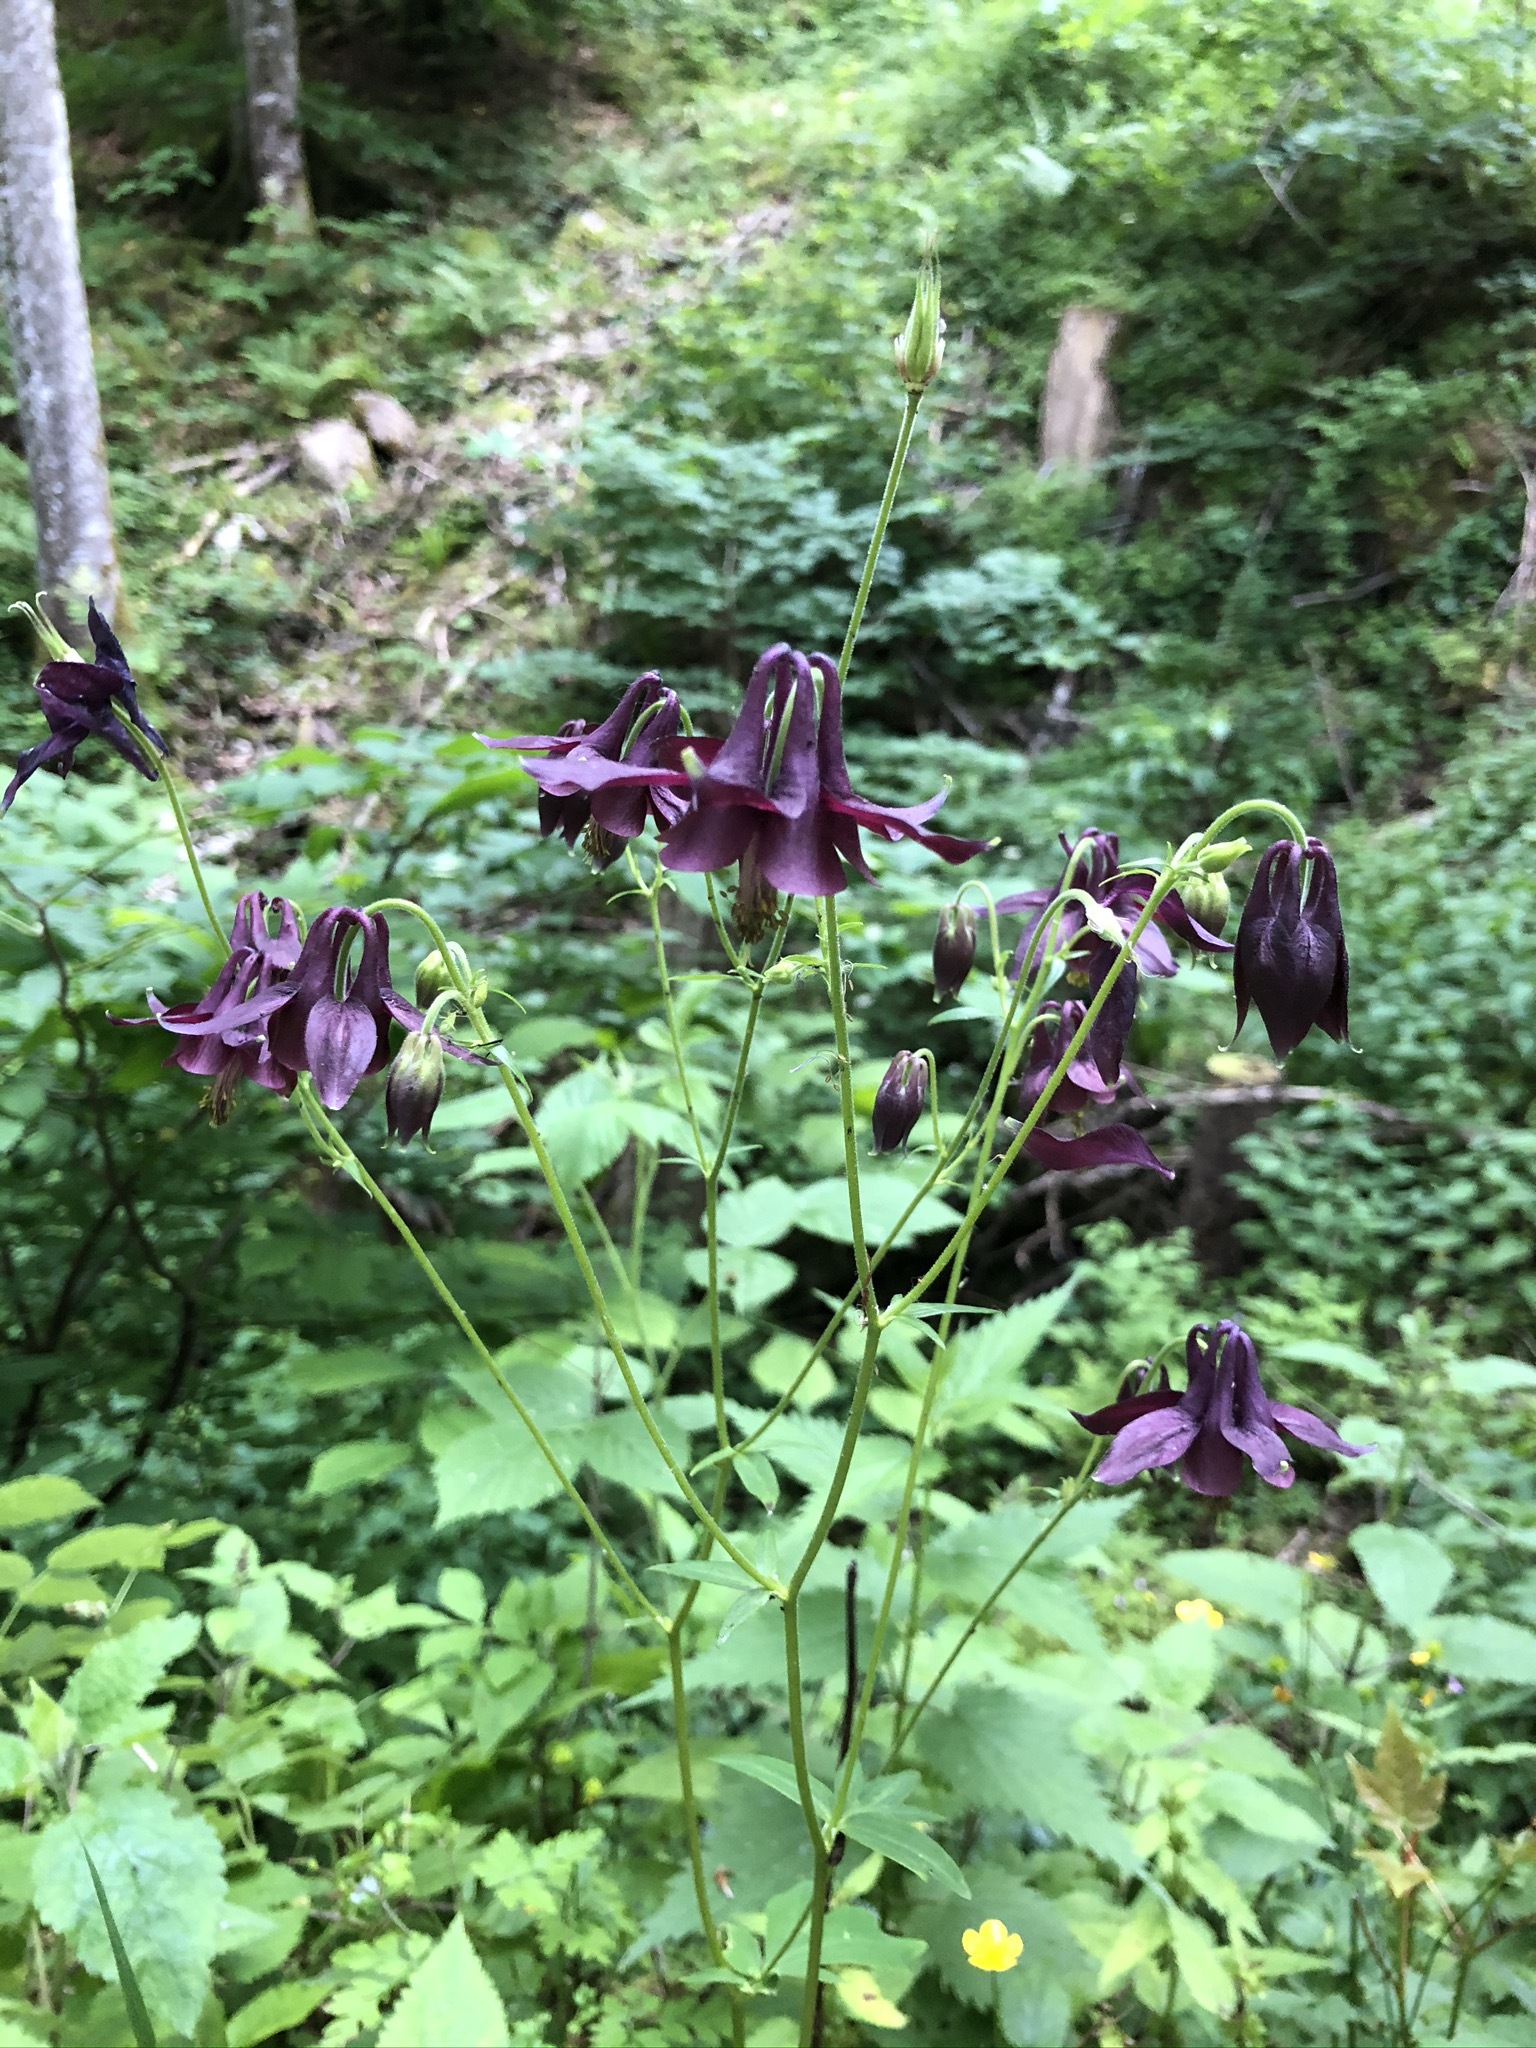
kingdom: Plantae
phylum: Tracheophyta
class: Magnoliopsida
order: Ranunculales
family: Ranunculaceae
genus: Aquilegia
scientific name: Aquilegia atrata
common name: Dark columbine
